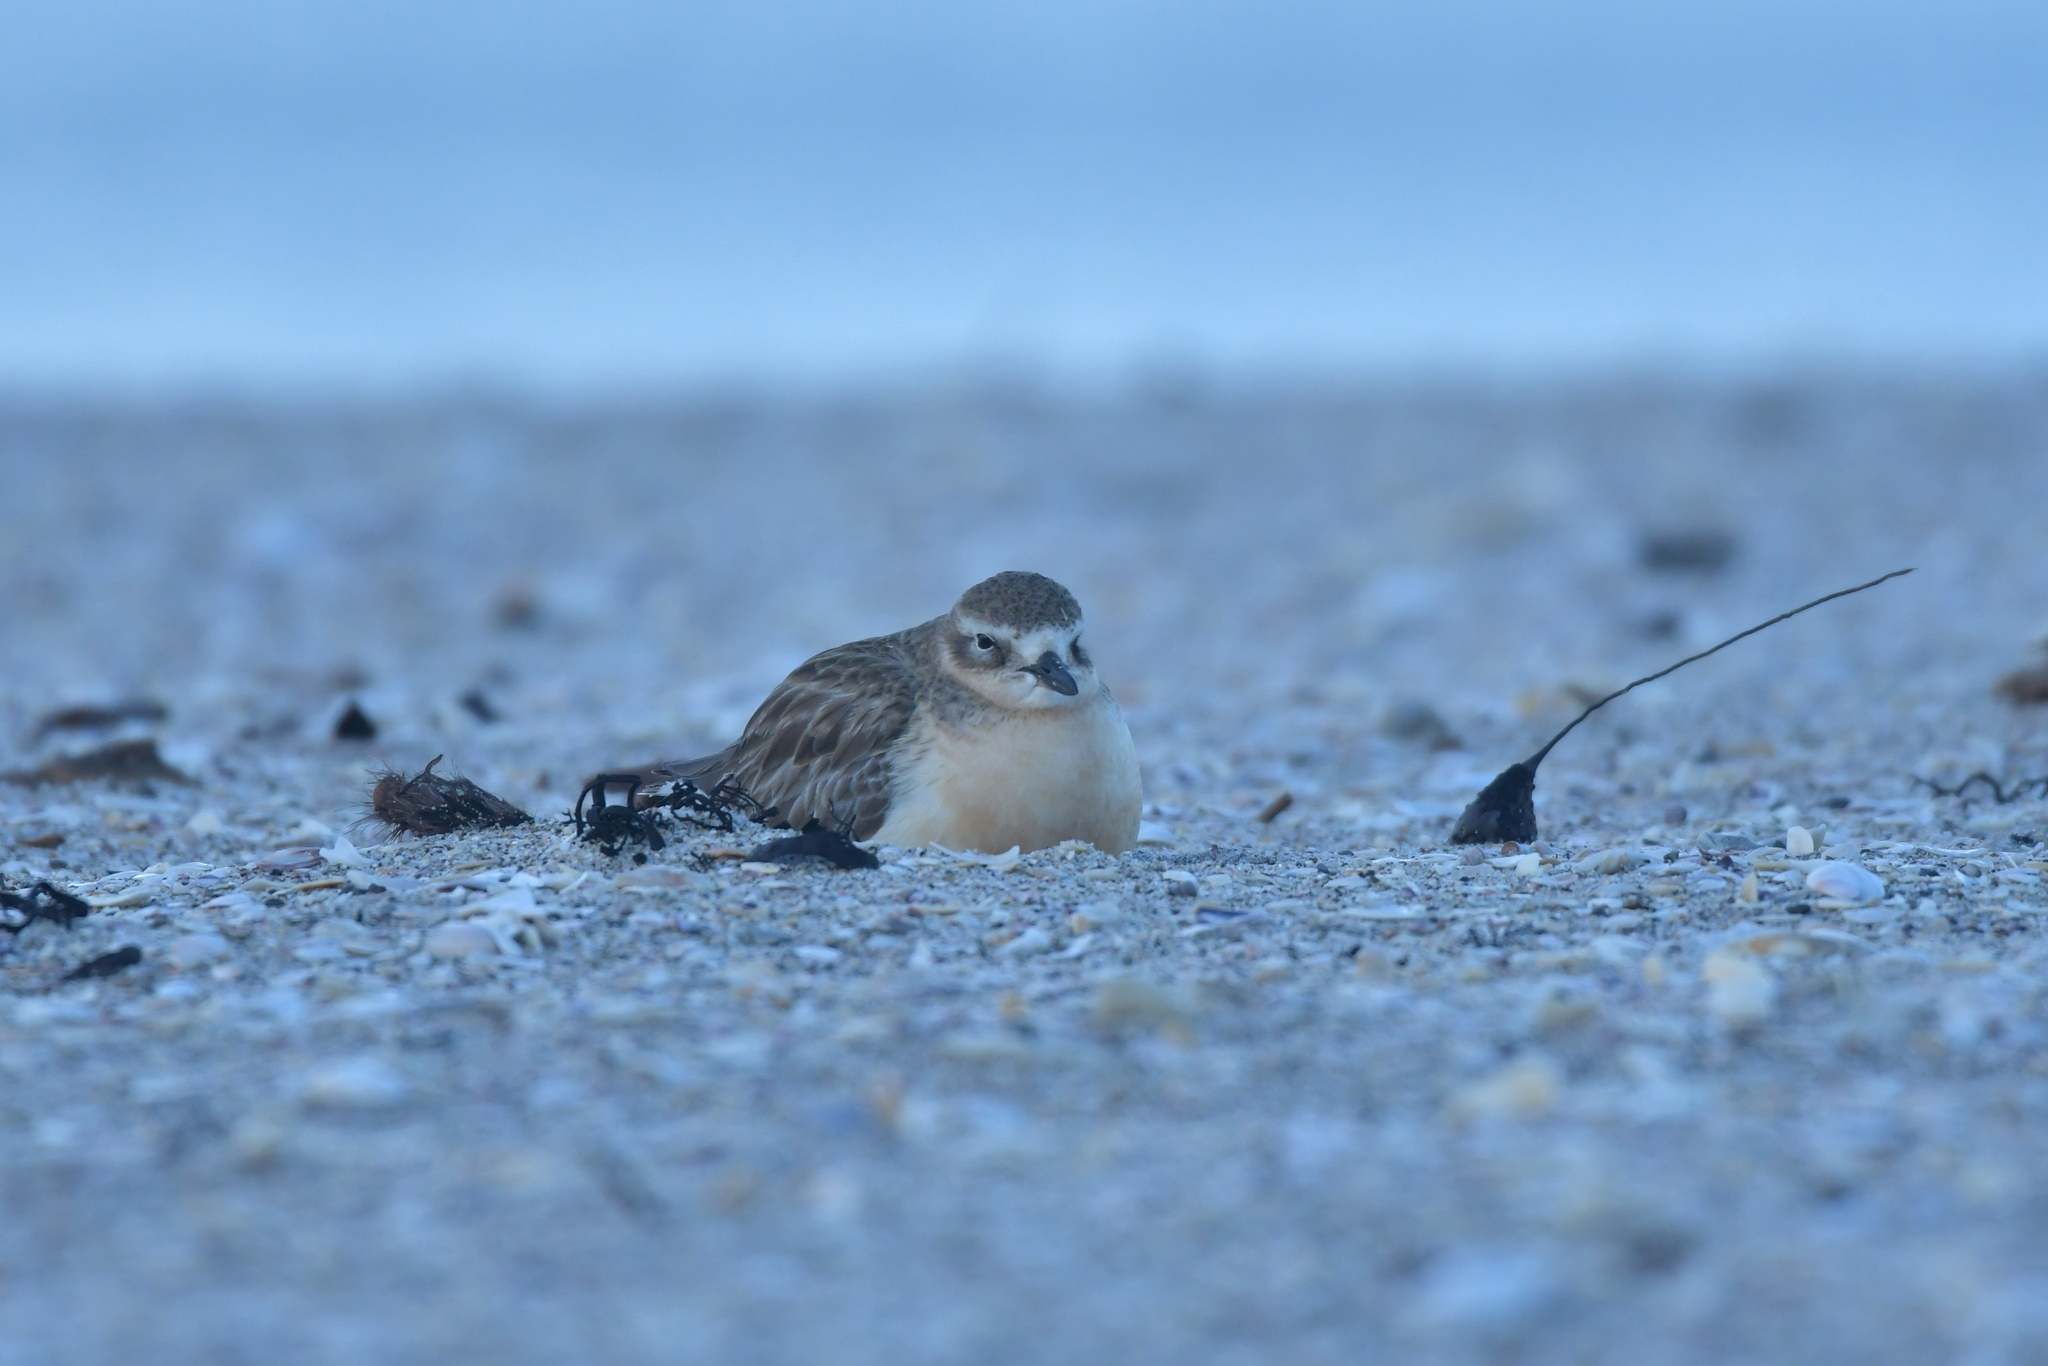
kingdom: Animalia
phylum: Chordata
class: Aves
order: Charadriiformes
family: Charadriidae
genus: Anarhynchus
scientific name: Anarhynchus
